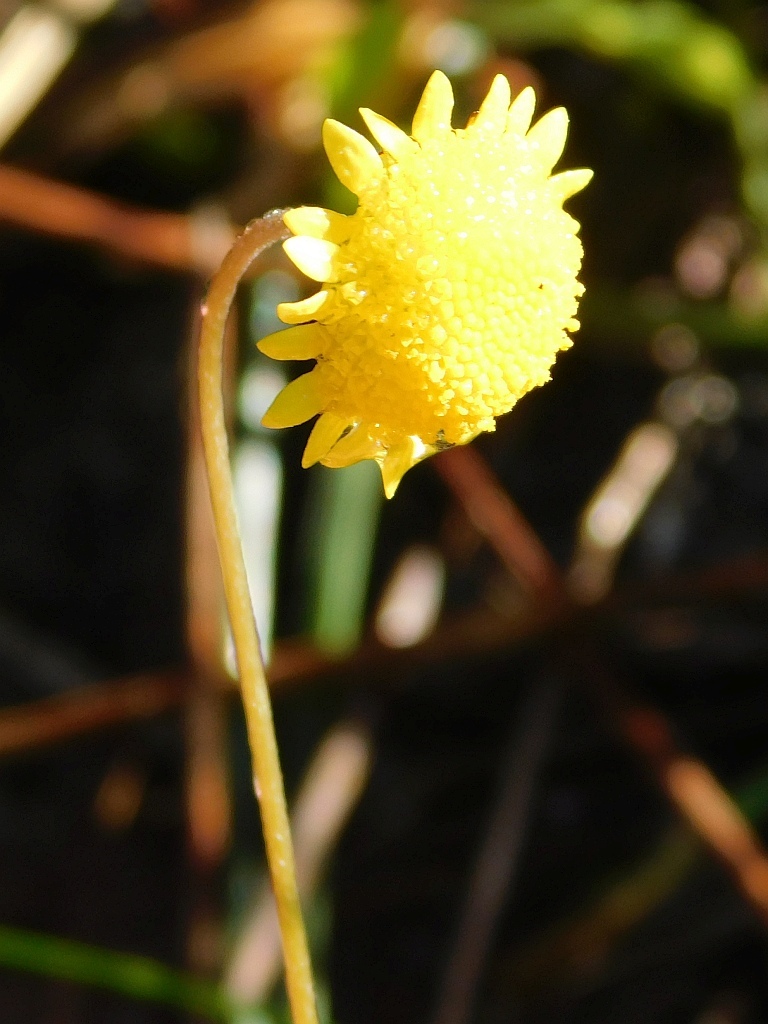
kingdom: Plantae
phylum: Tracheophyta
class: Magnoliopsida
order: Asterales
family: Asteraceae
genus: Cotula
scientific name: Cotula pruinosa
